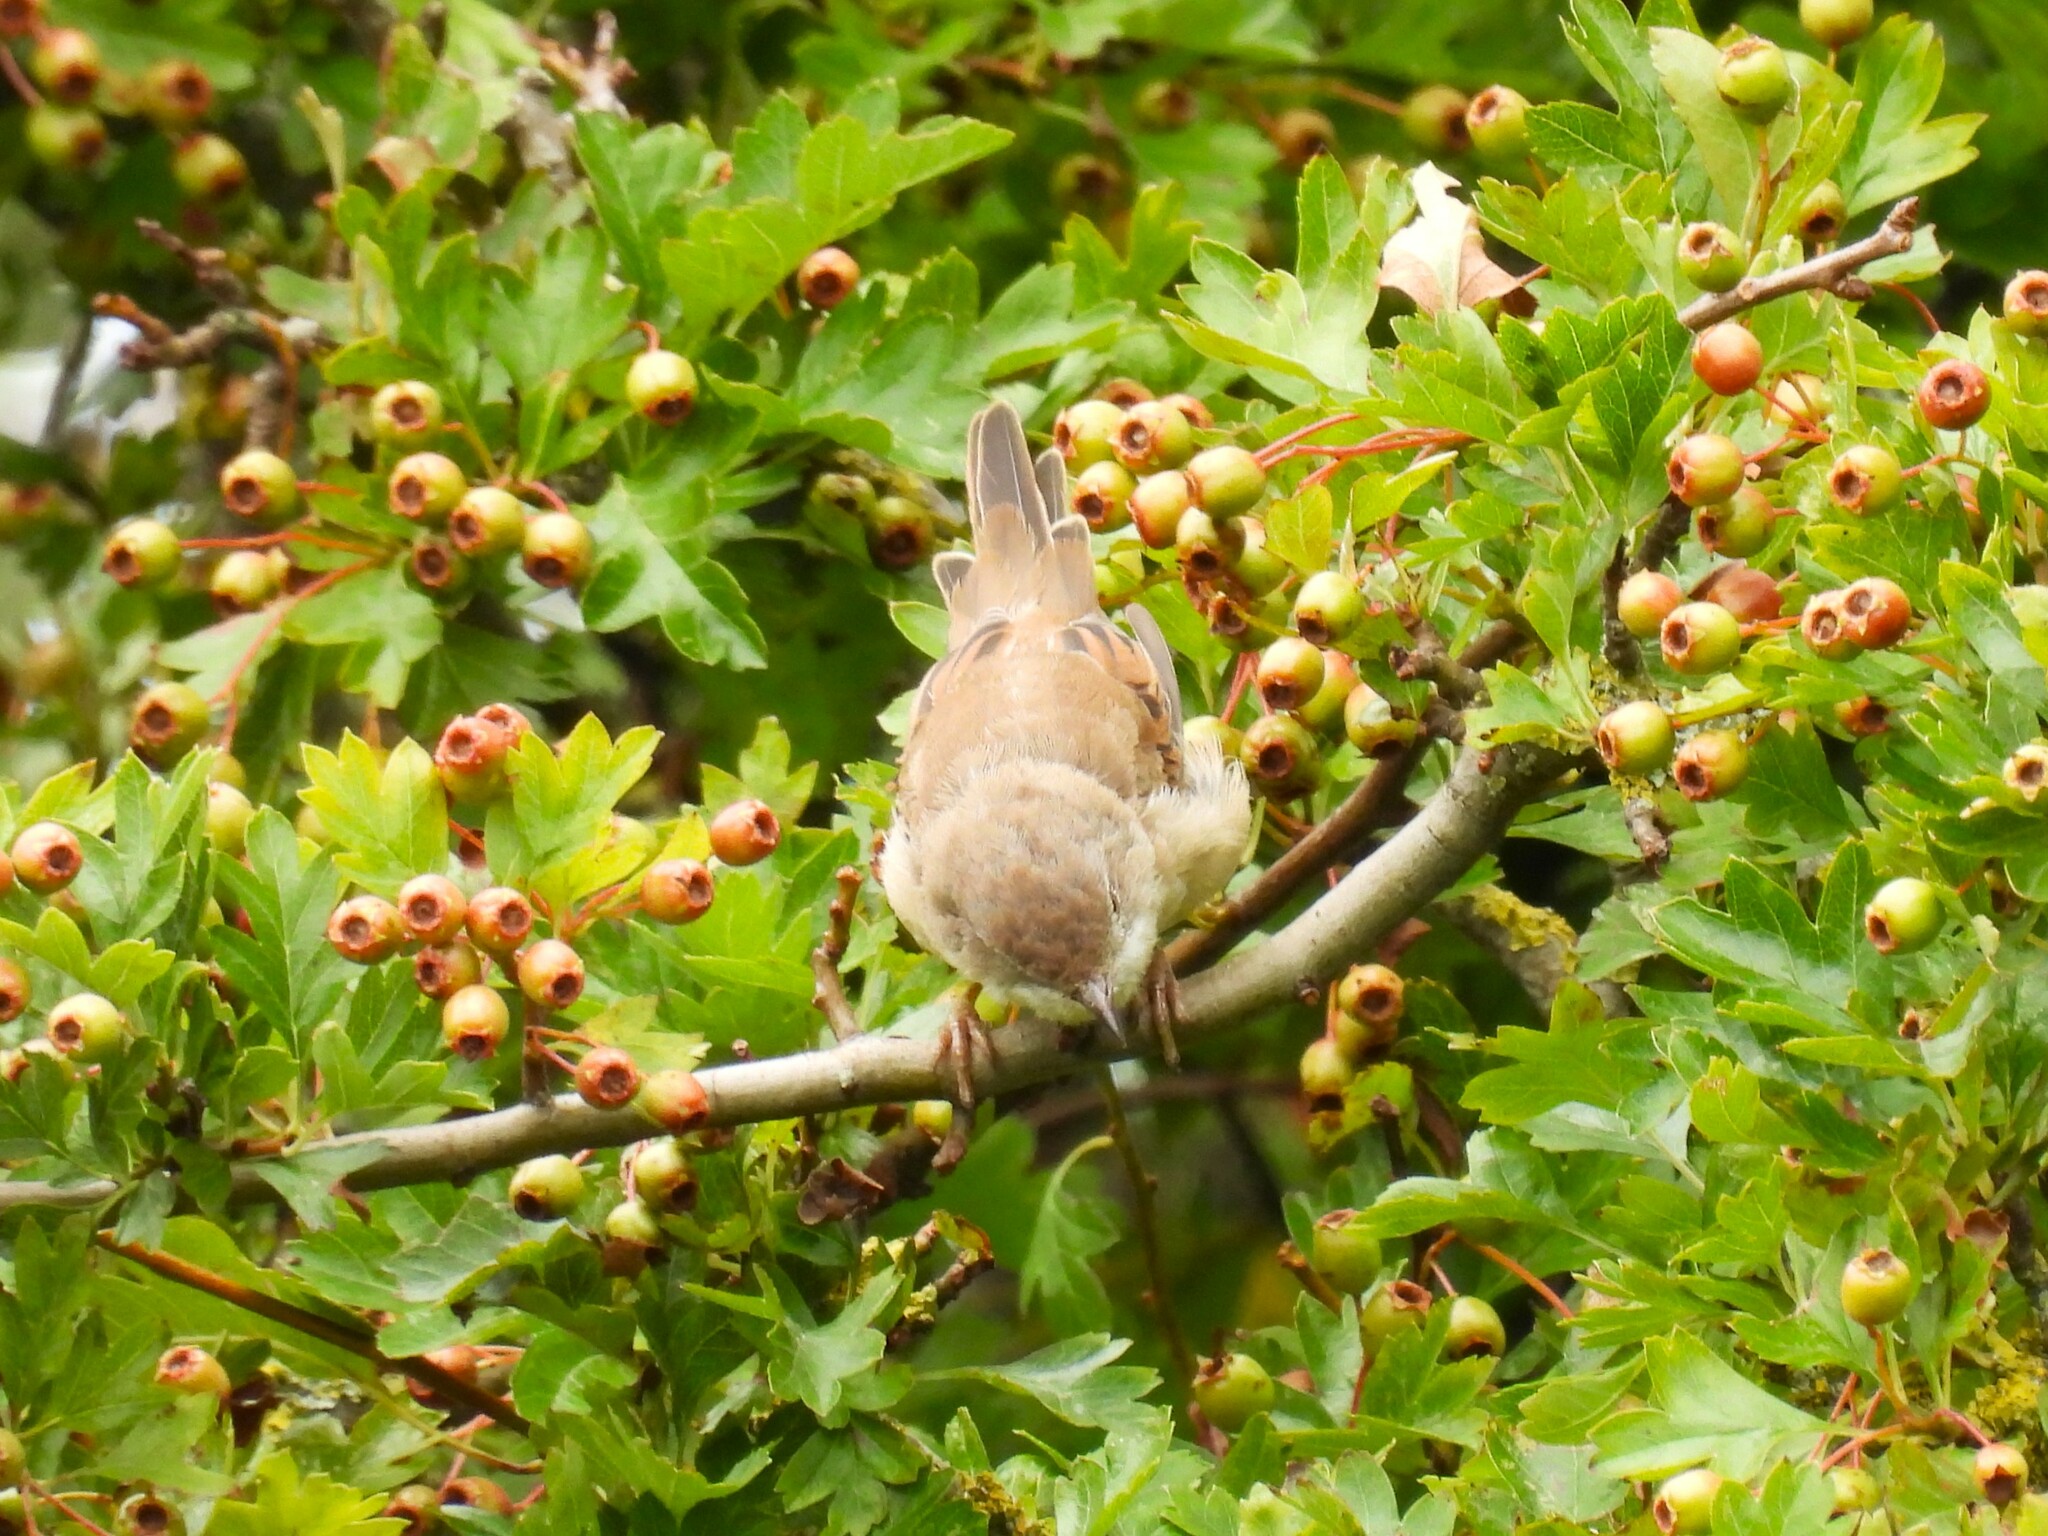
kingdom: Animalia
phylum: Chordata
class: Aves
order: Passeriformes
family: Sylviidae
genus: Sylvia
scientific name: Sylvia communis
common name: Common whitethroat
